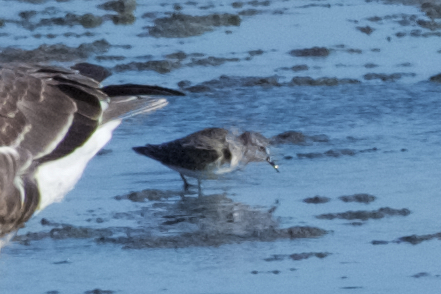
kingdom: Animalia
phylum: Chordata
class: Aves
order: Charadriiformes
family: Scolopacidae
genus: Calidris
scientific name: Calidris minutilla
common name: Least sandpiper
